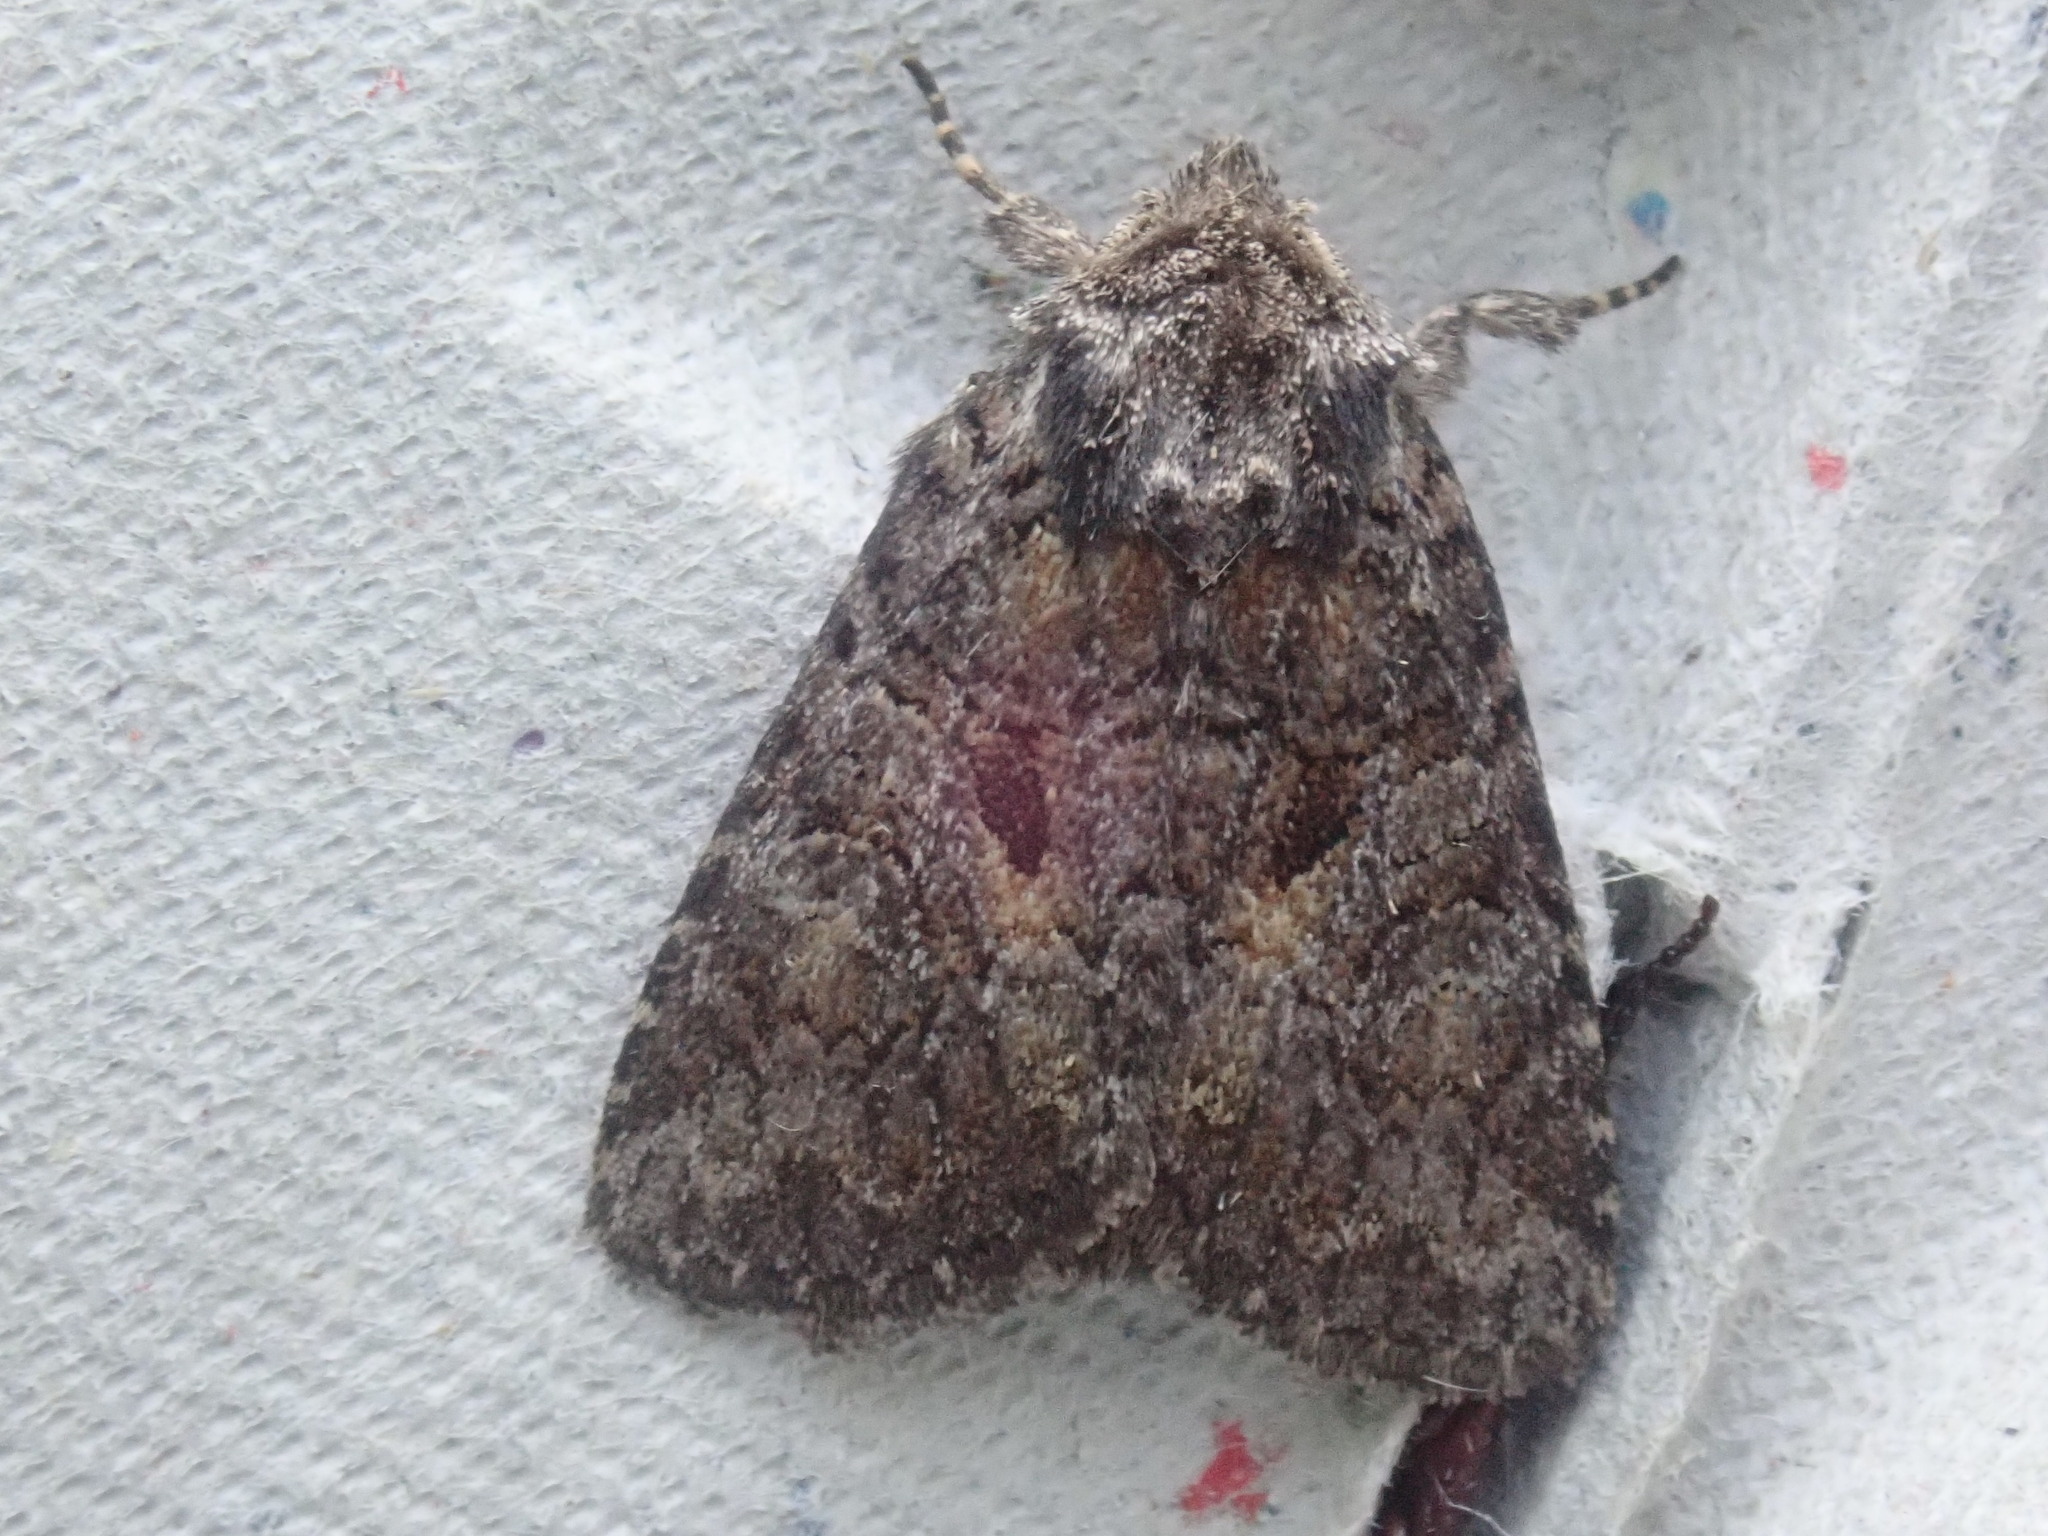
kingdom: Animalia
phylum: Arthropoda
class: Insecta
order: Lepidoptera
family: Noctuidae
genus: Orthodes
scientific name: Orthodes detracta
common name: Disparaged arches moth
